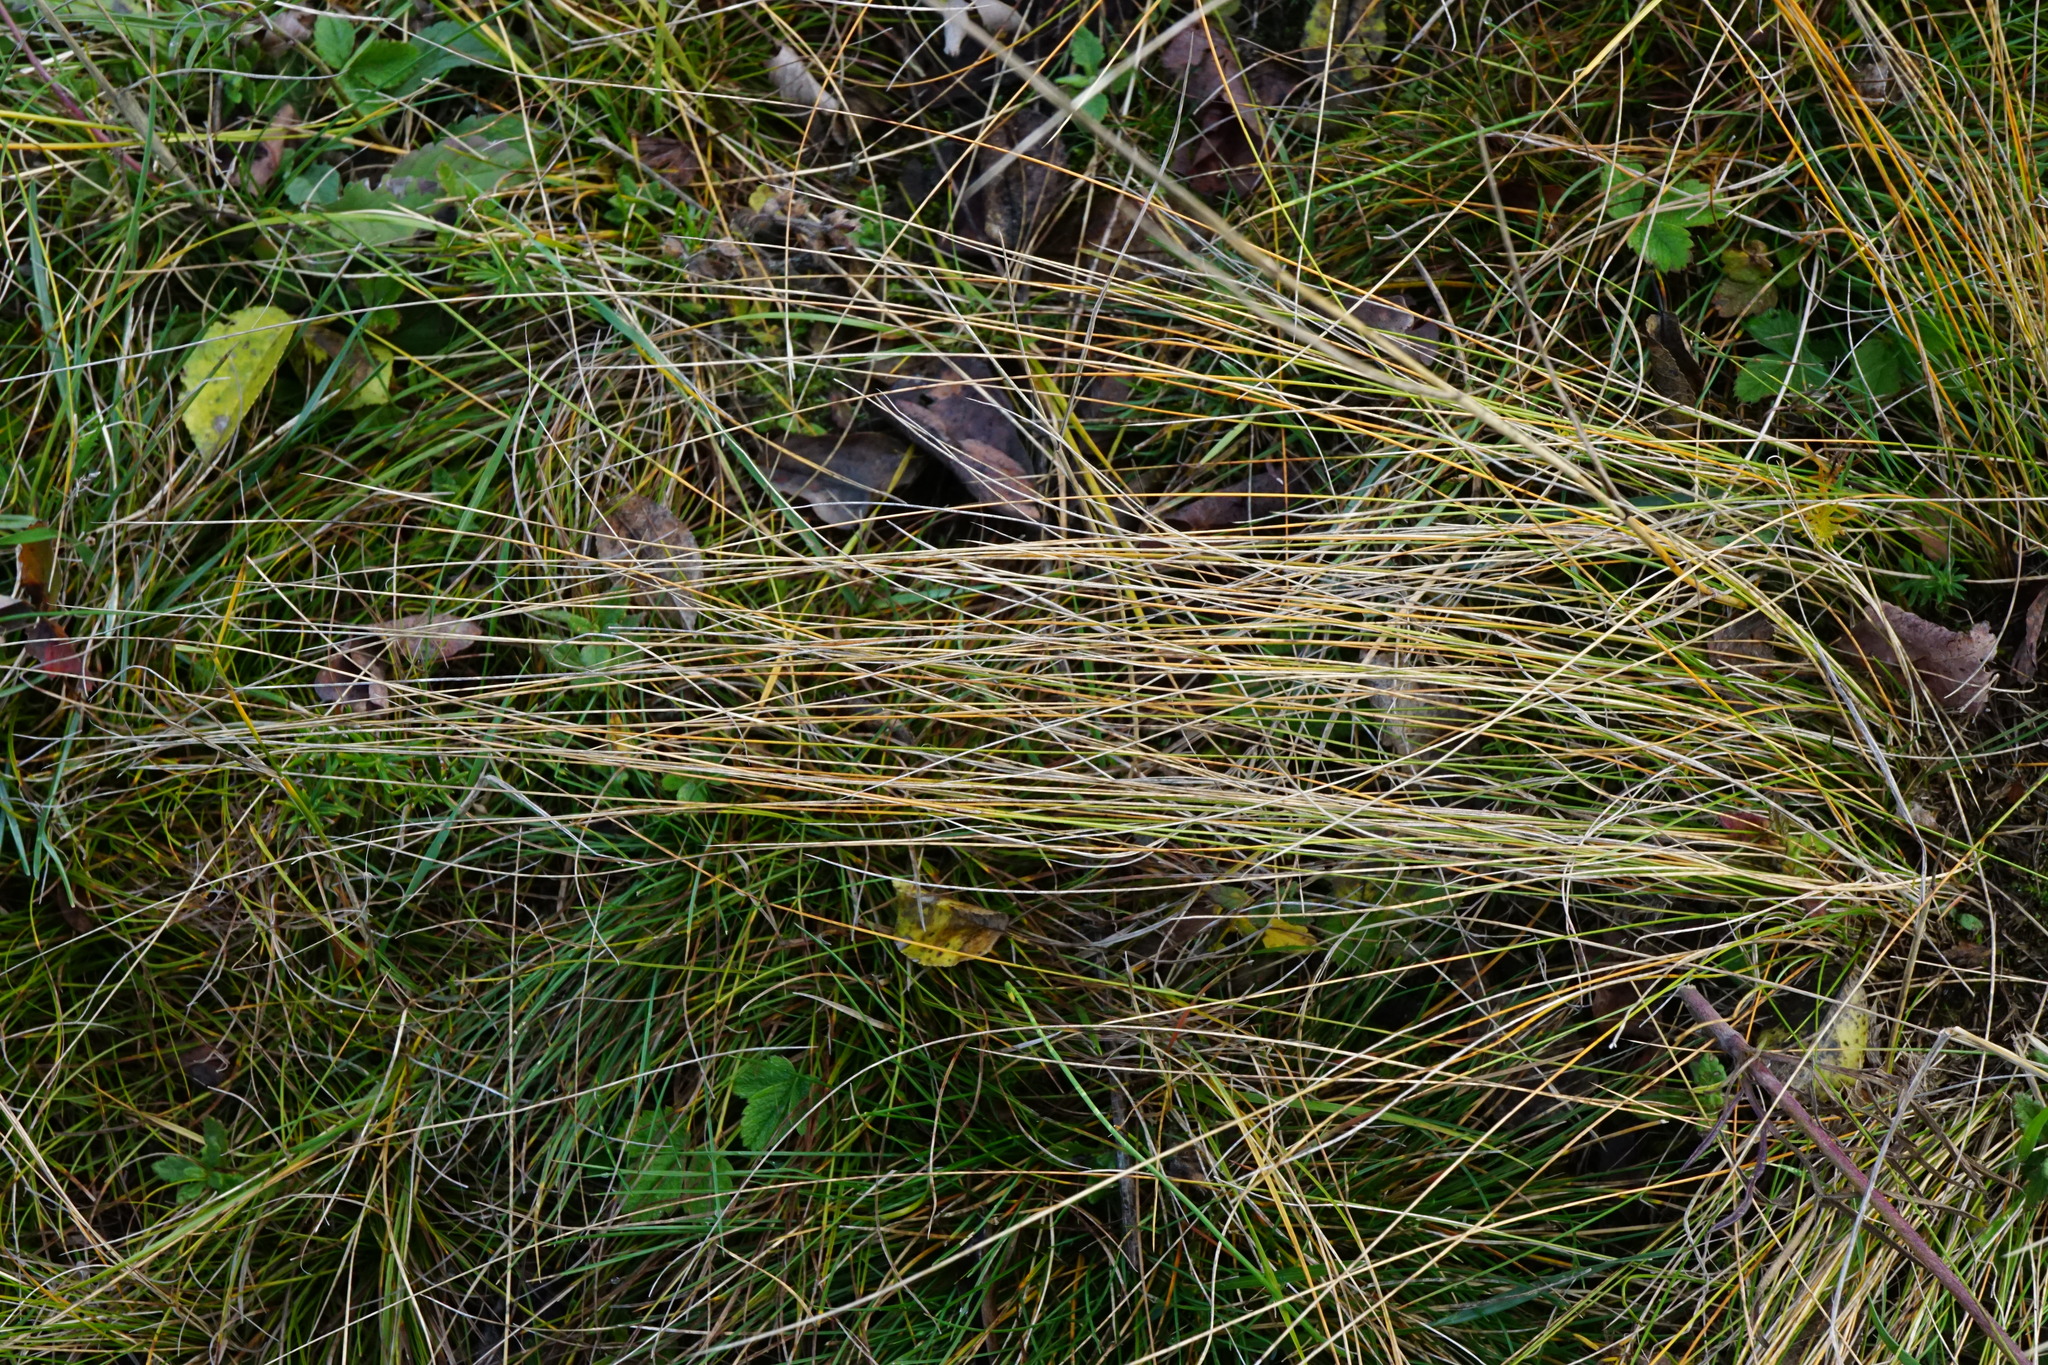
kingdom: Plantae
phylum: Tracheophyta
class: Liliopsida
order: Poales
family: Poaceae
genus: Stipa
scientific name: Stipa tirsa
